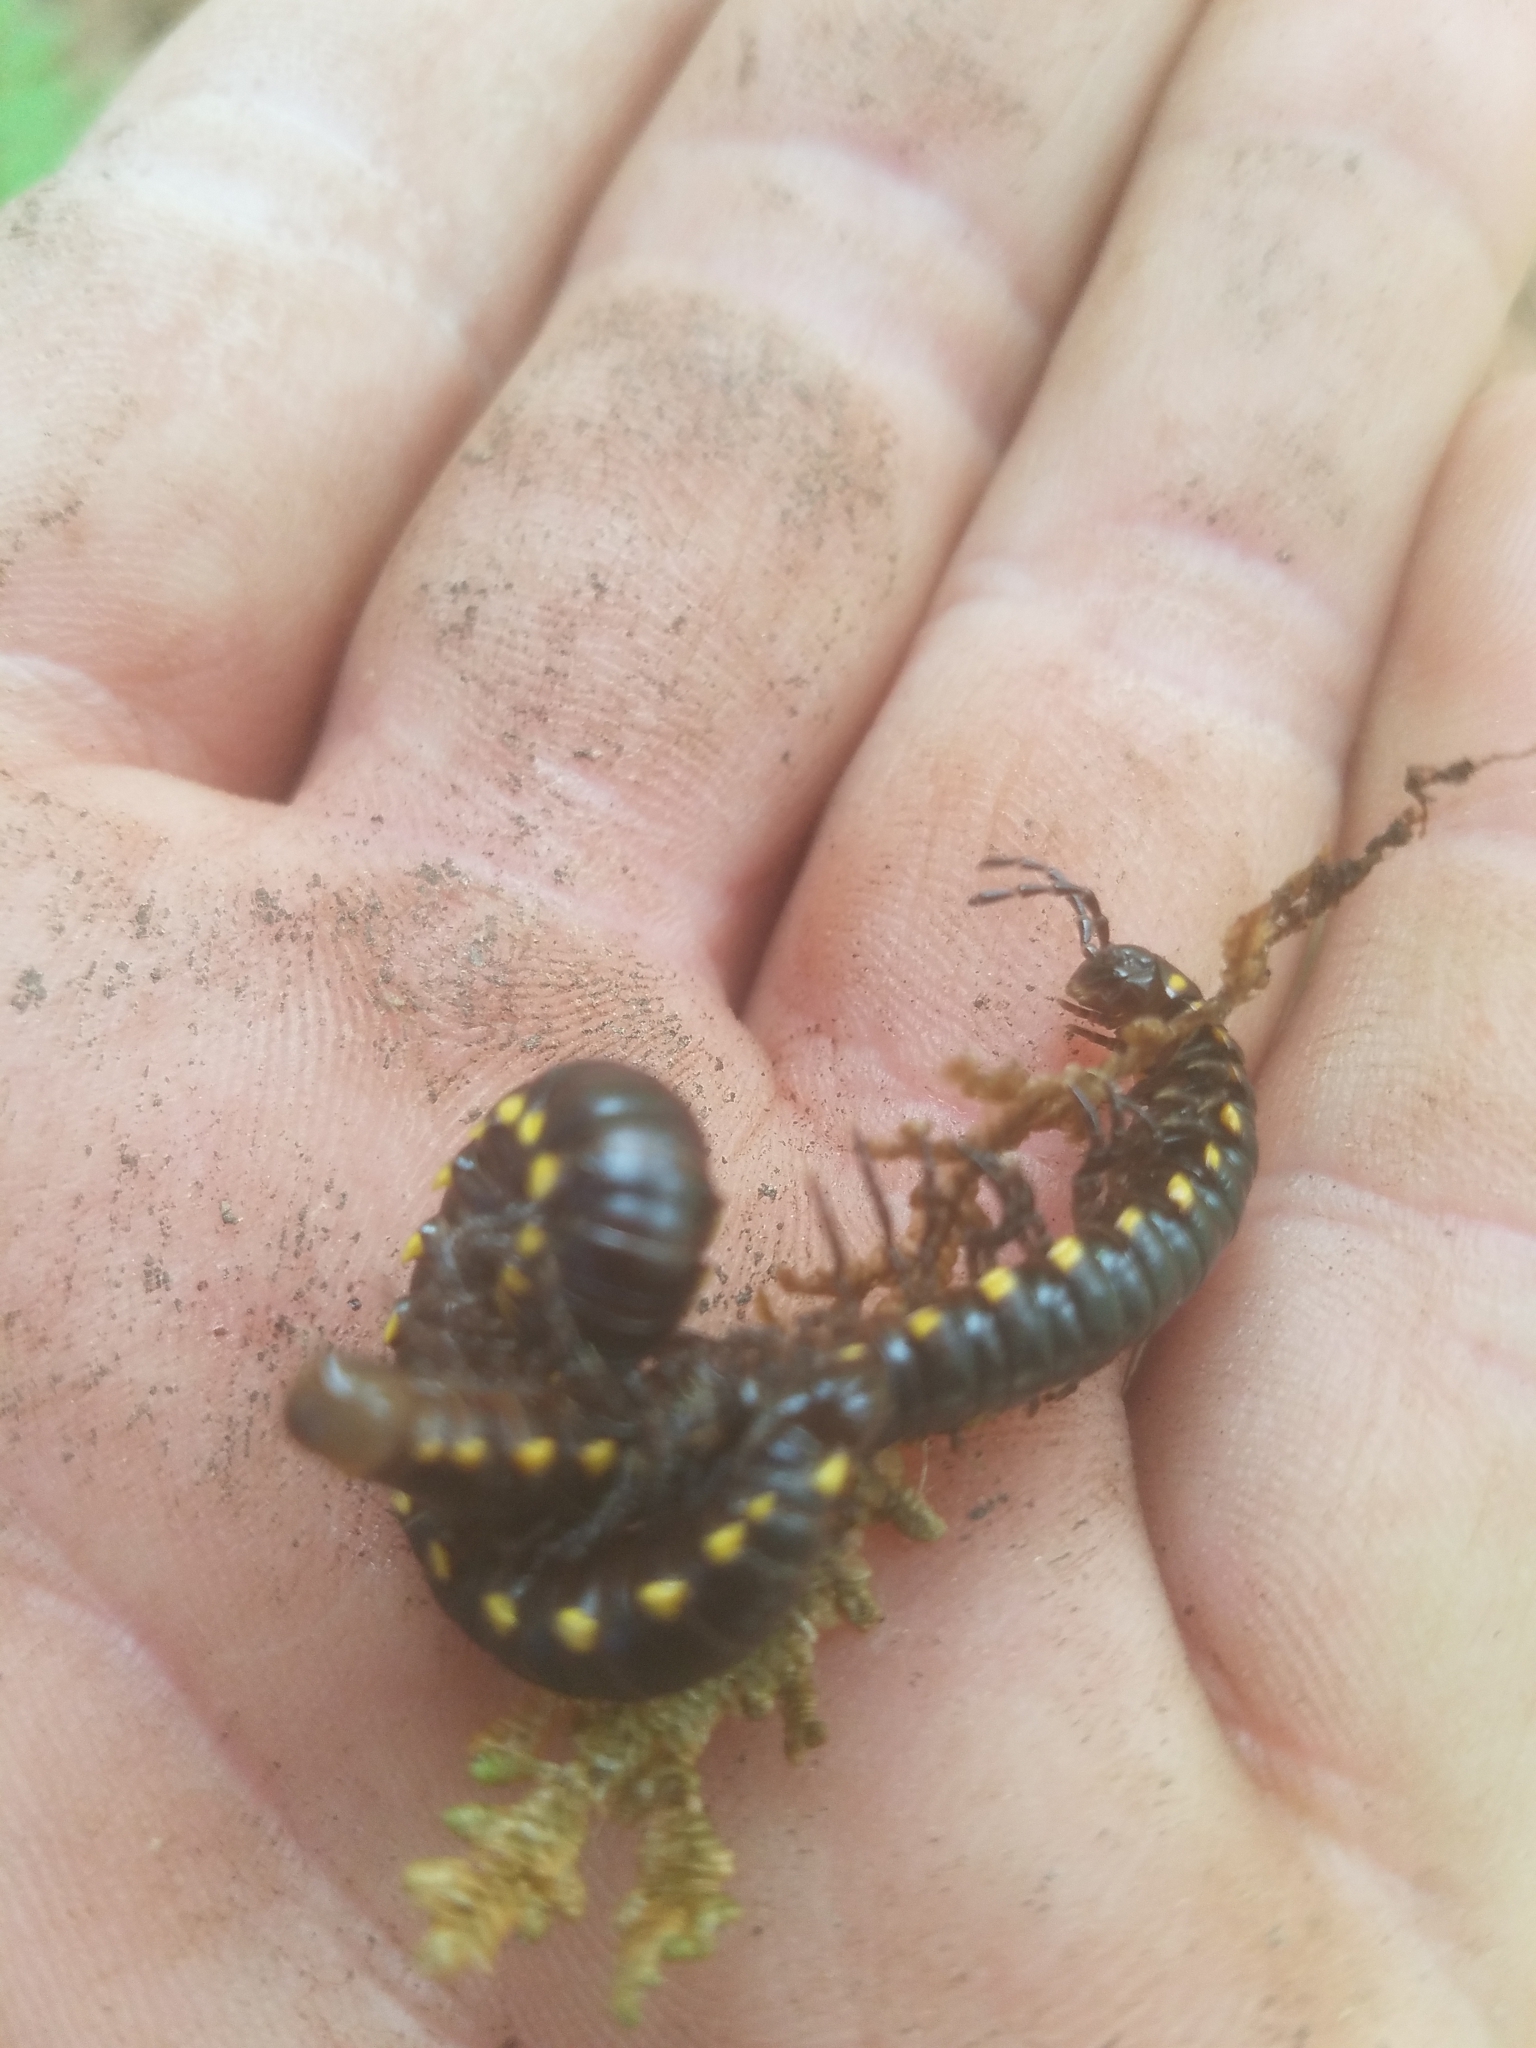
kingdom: Animalia
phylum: Arthropoda
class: Diplopoda
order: Polydesmida
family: Xystodesmidae
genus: Harpaphe
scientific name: Harpaphe haydeniana
